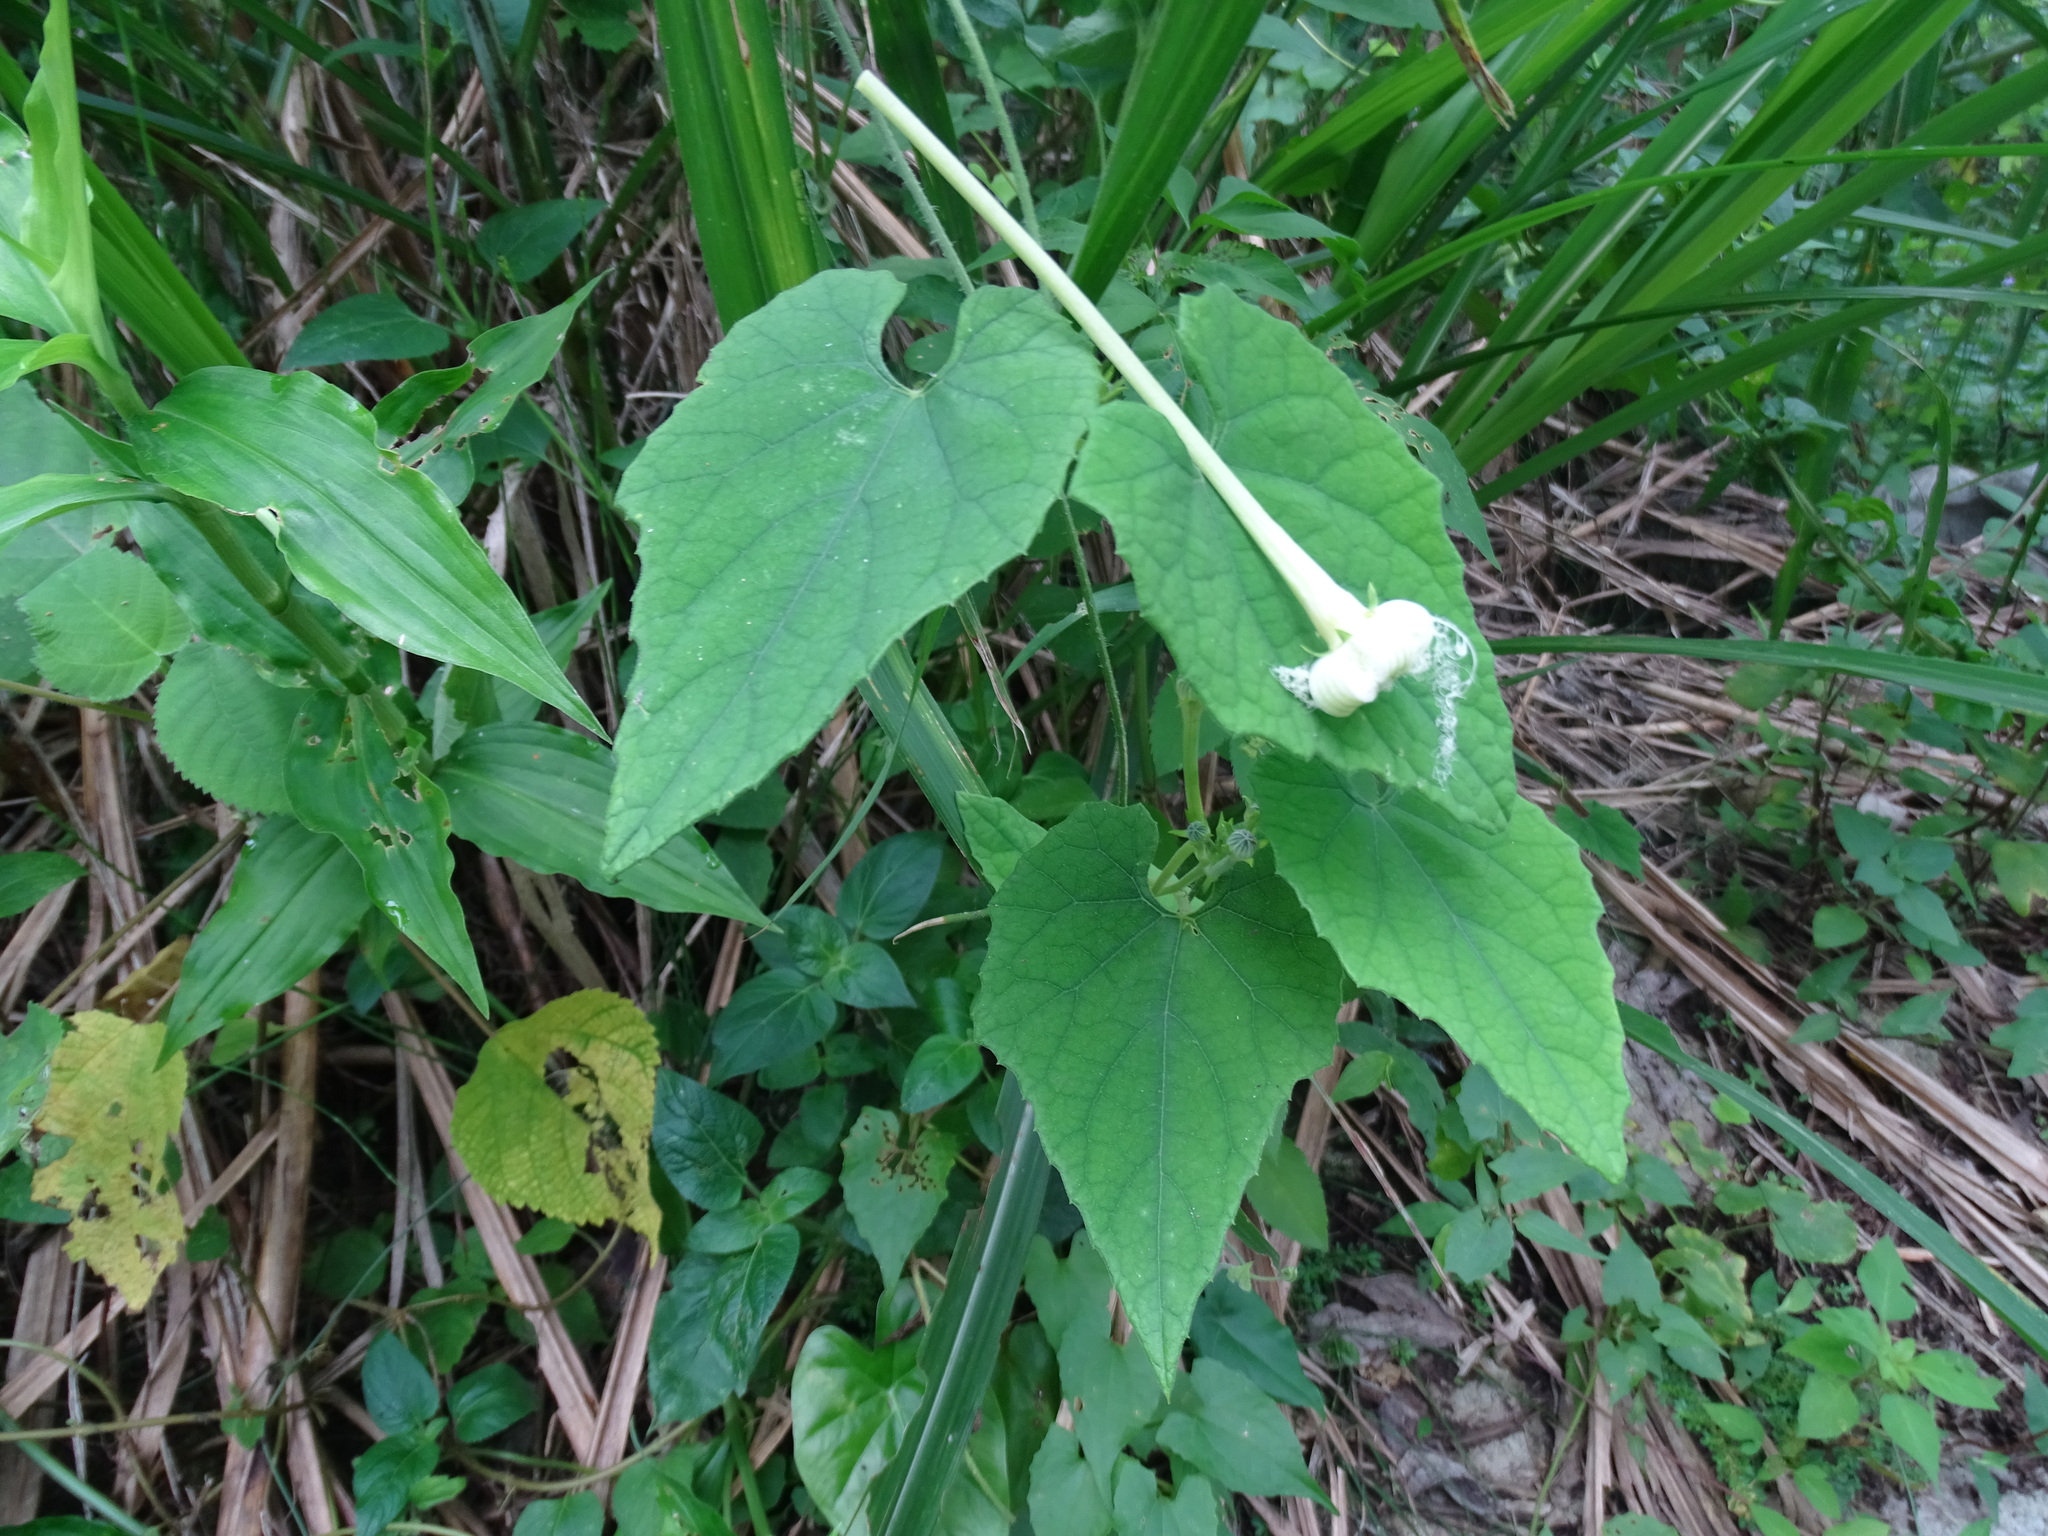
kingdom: Plantae
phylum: Tracheophyta
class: Magnoliopsida
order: Cucurbitales
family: Cucurbitaceae
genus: Trichosanthes
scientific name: Trichosanthes cucumeroides
